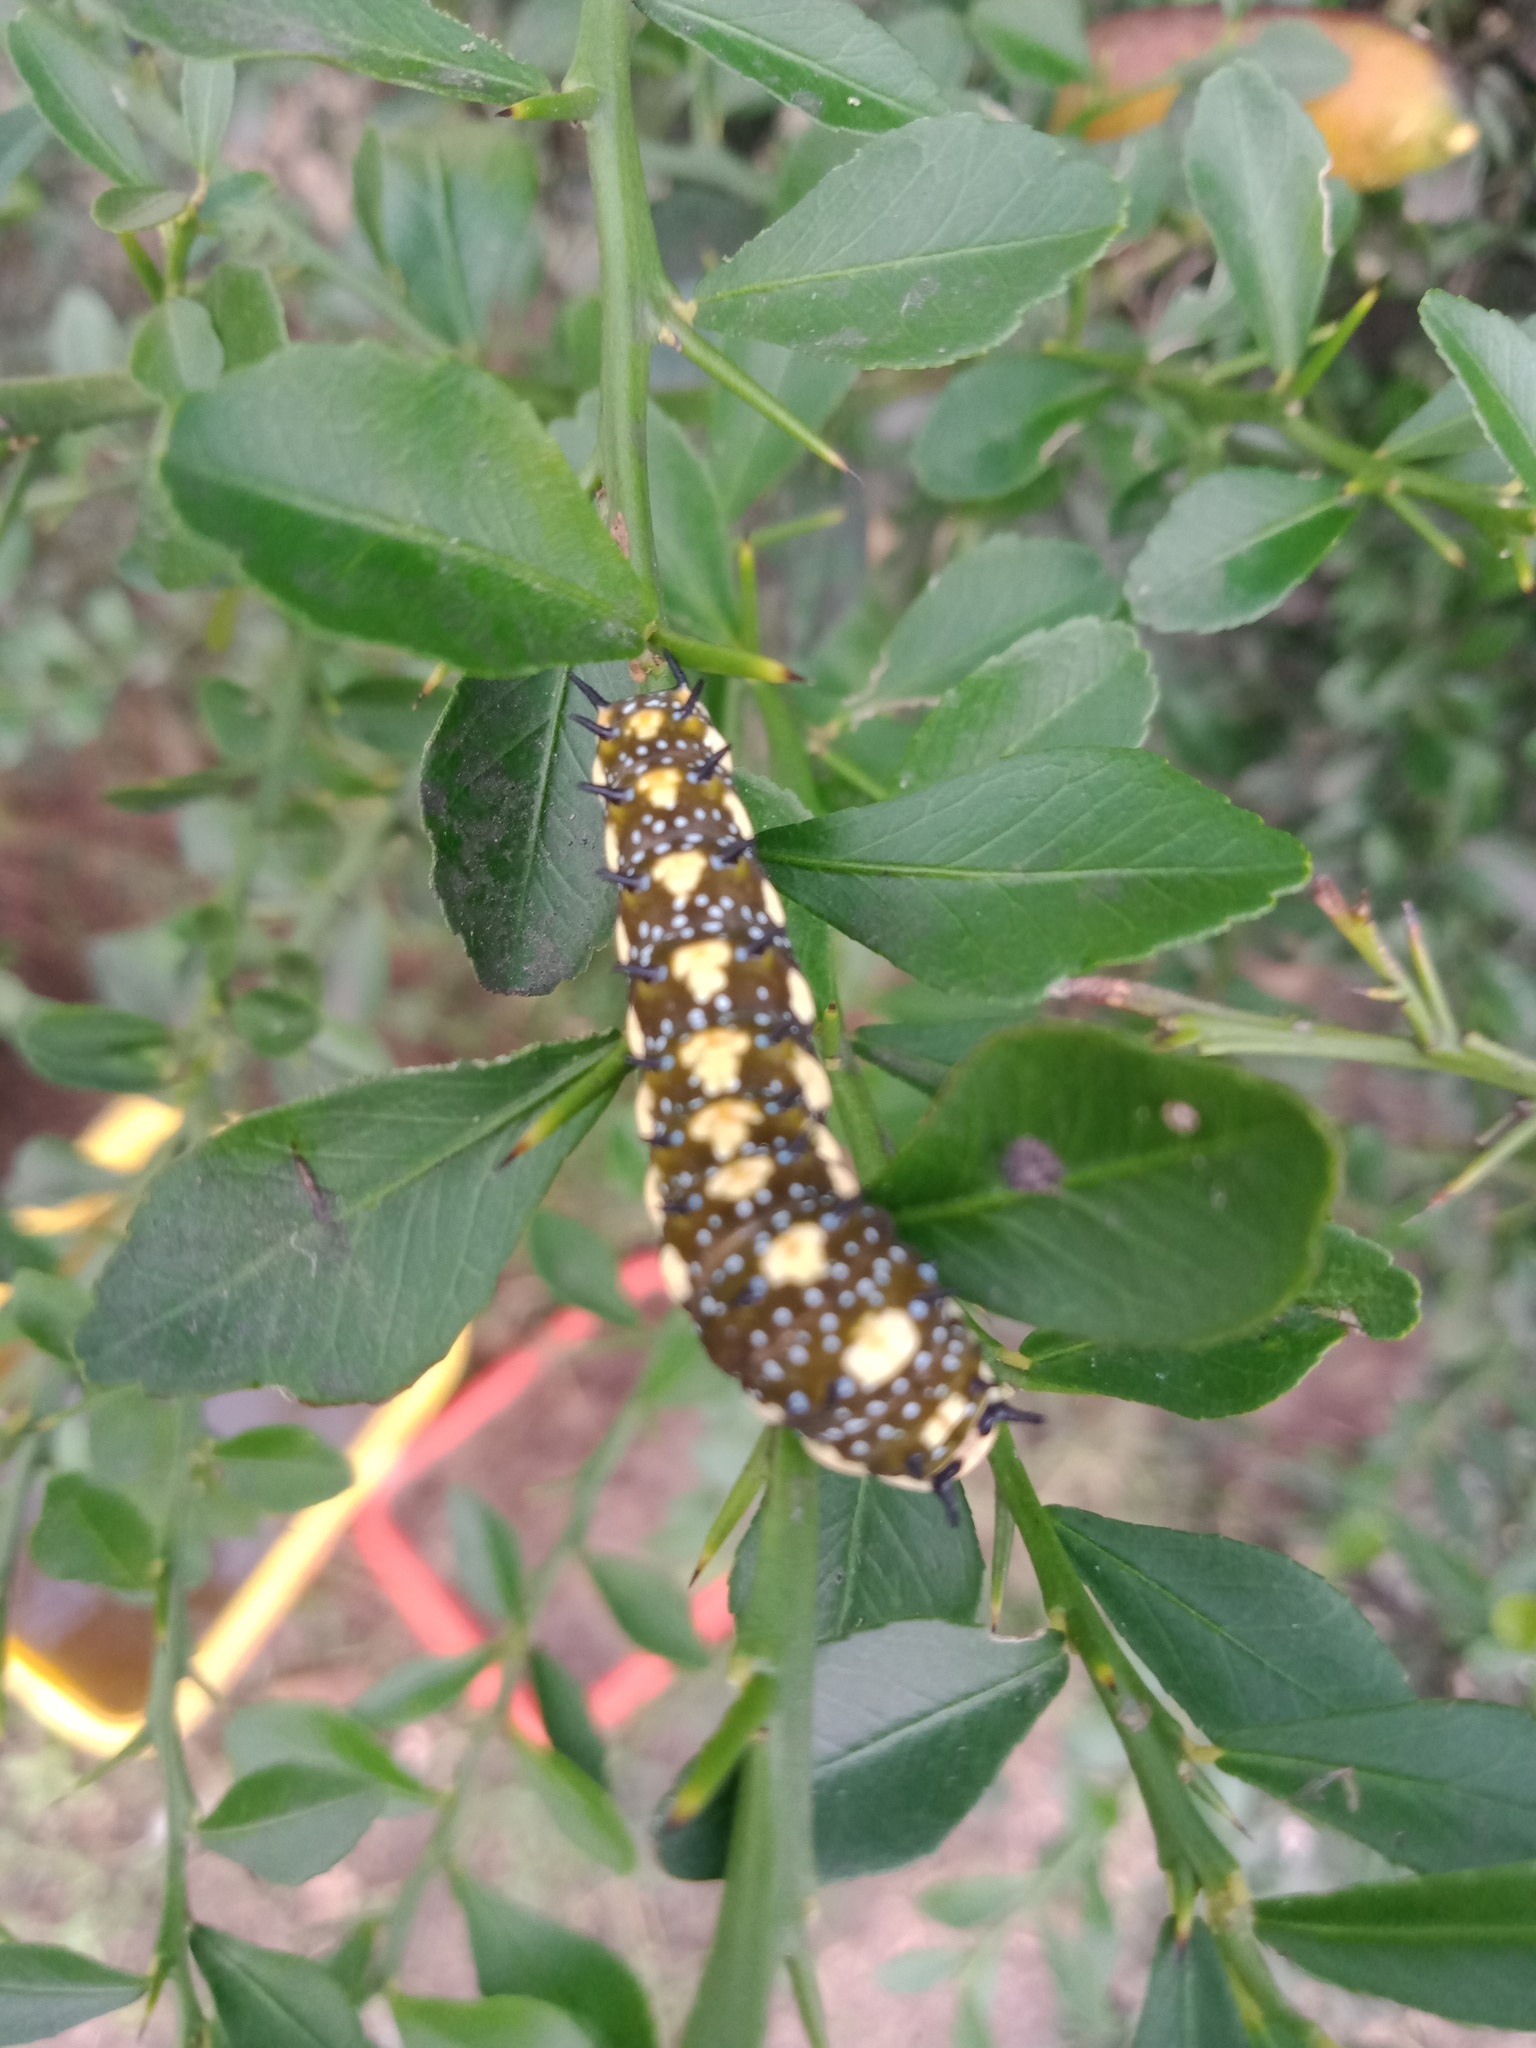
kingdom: Animalia
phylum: Arthropoda
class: Insecta
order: Lepidoptera
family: Papilionidae
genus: Papilio
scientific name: Papilio anactus
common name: Dingy swallowtail
